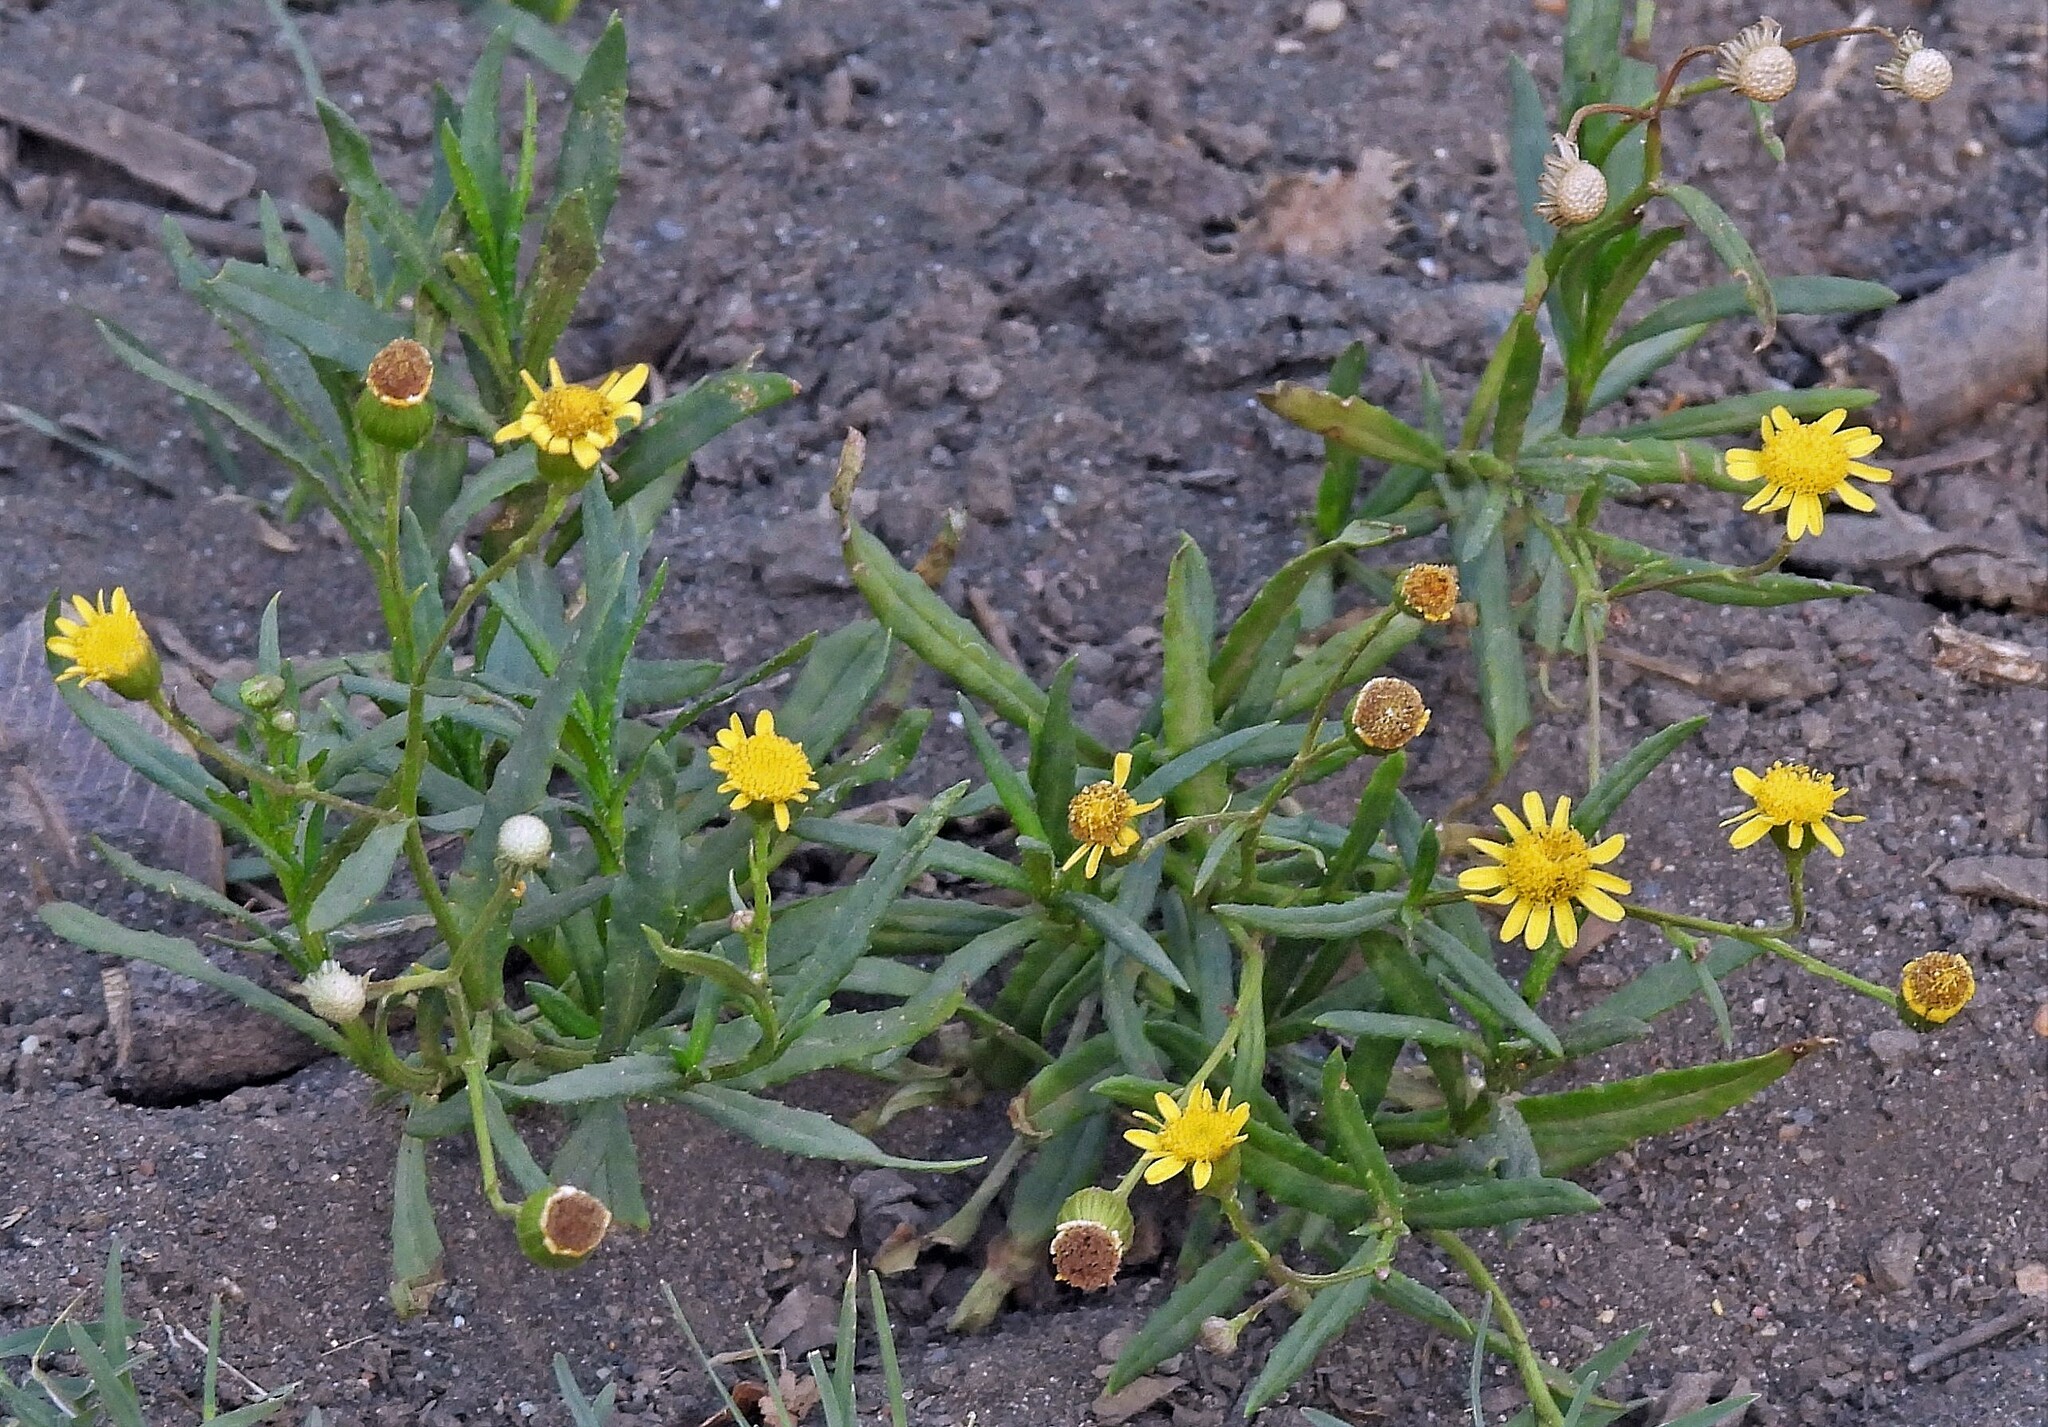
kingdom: Plantae
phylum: Tracheophyta
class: Magnoliopsida
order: Asterales
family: Asteraceae
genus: Senecio
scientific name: Senecio madagascariensis
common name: Madagascar ragwort
